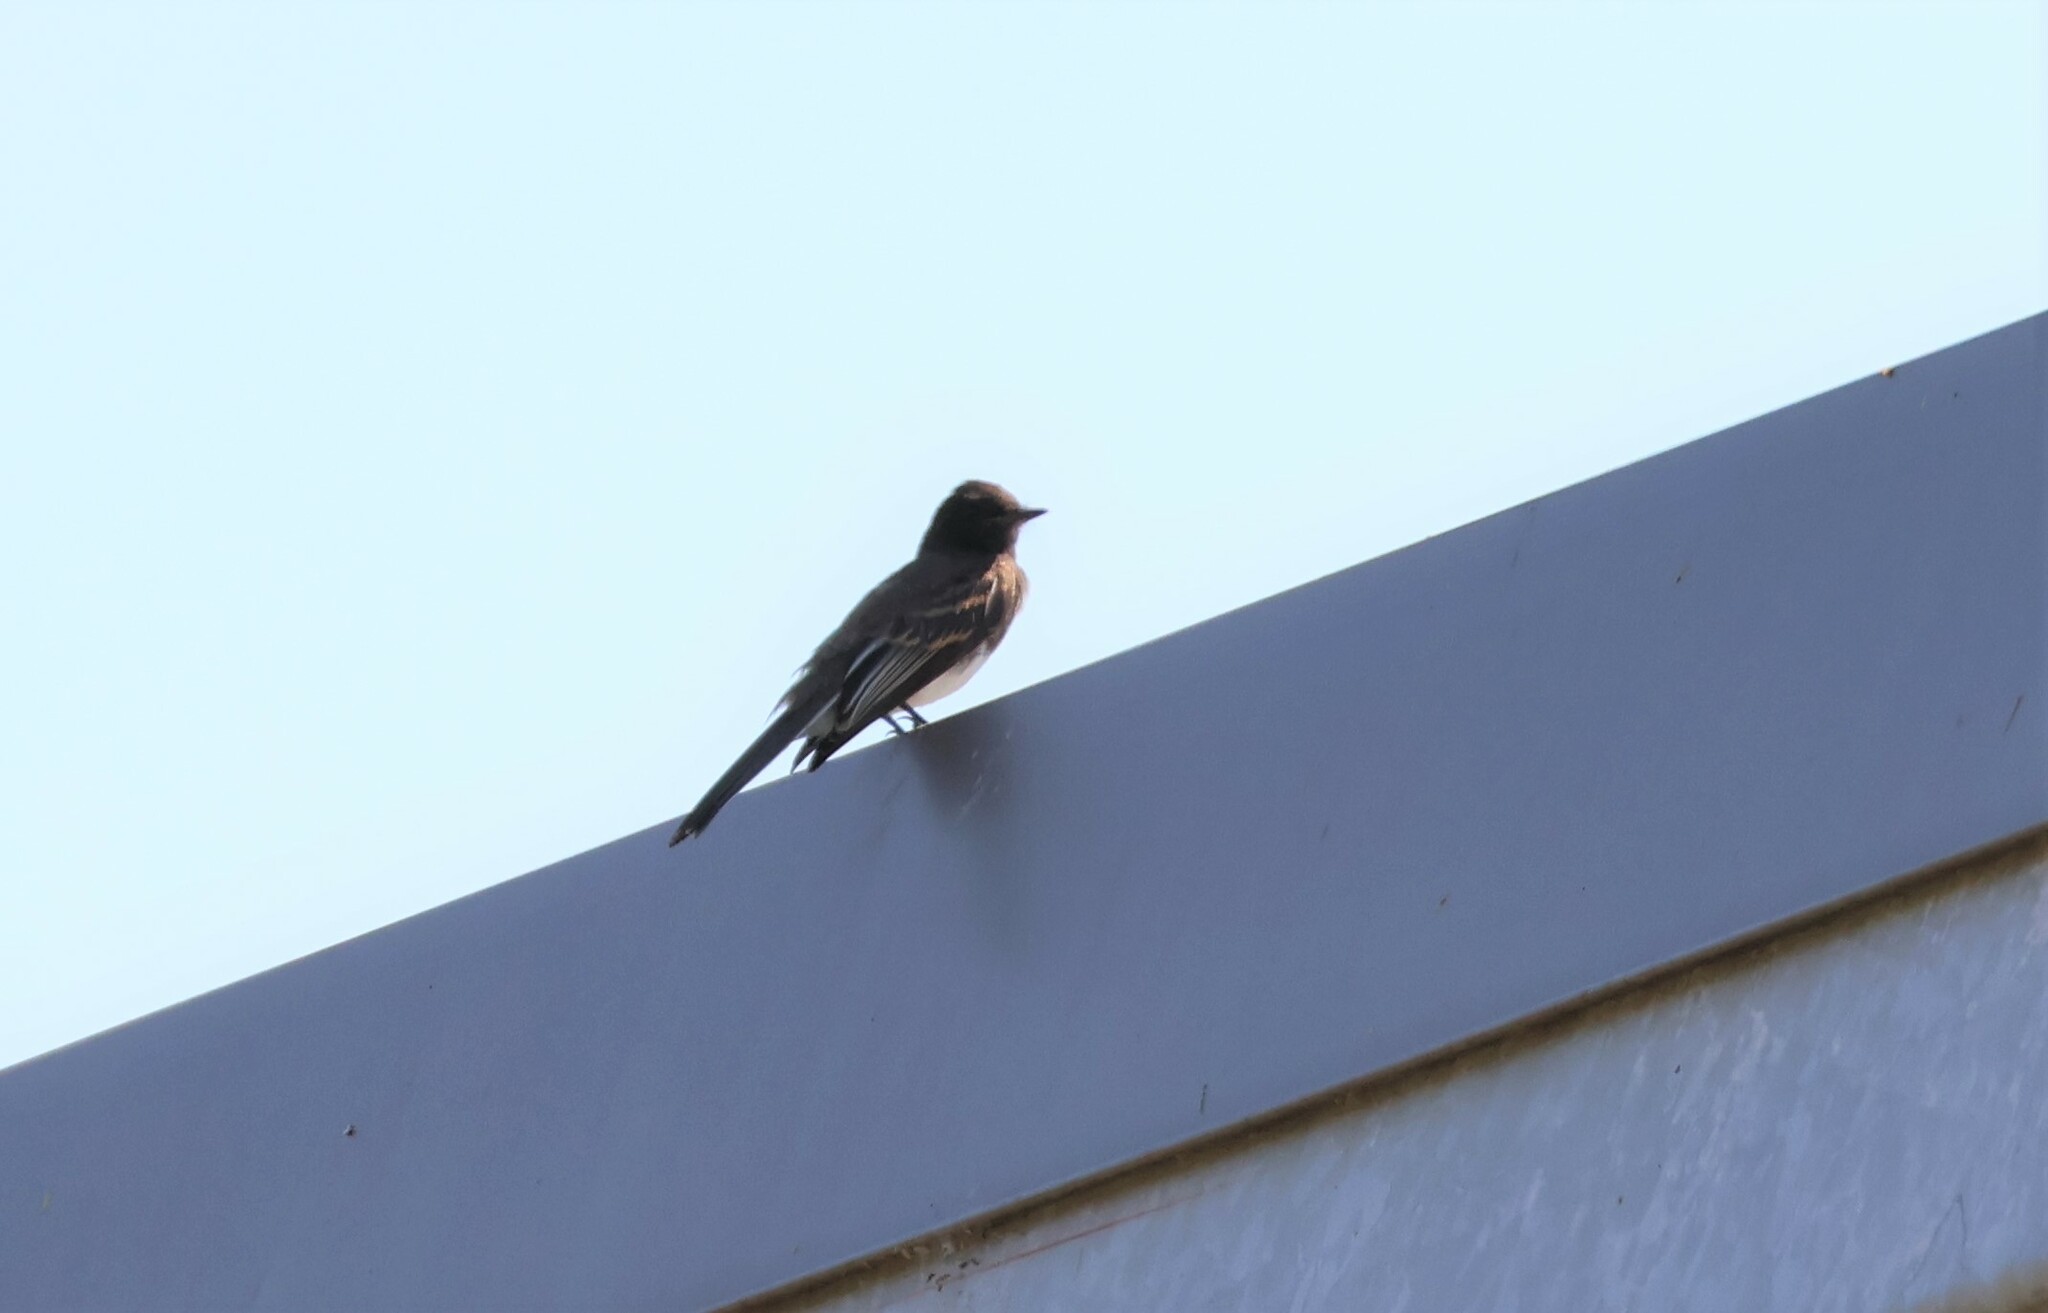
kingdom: Animalia
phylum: Chordata
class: Aves
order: Passeriformes
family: Tyrannidae
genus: Sayornis
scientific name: Sayornis nigricans
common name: Black phoebe
